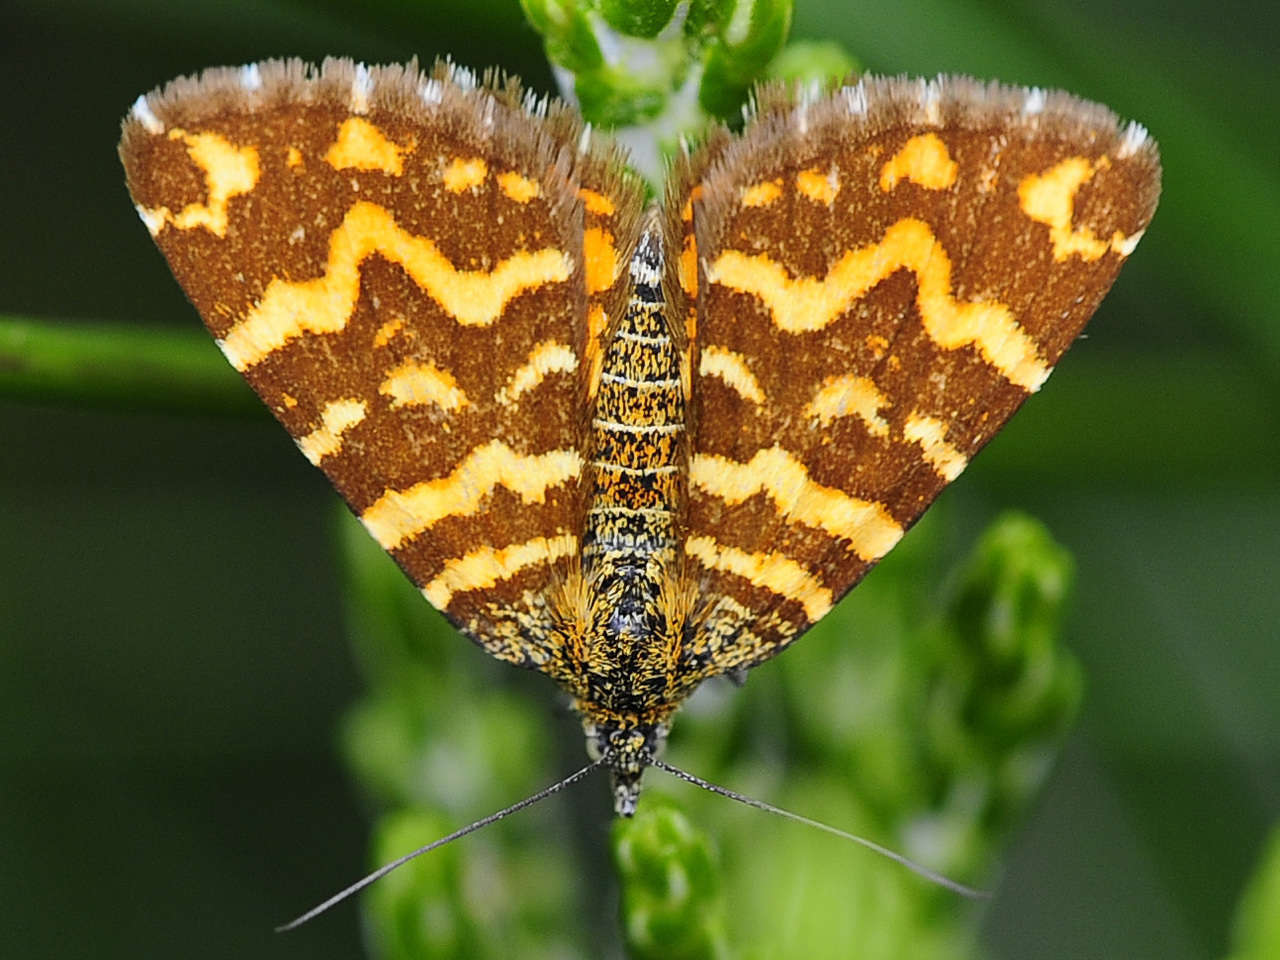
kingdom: Animalia
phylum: Arthropoda
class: Insecta
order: Lepidoptera
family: Geometridae
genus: Chrysolarentia
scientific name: Chrysolarentia chrysocyma
